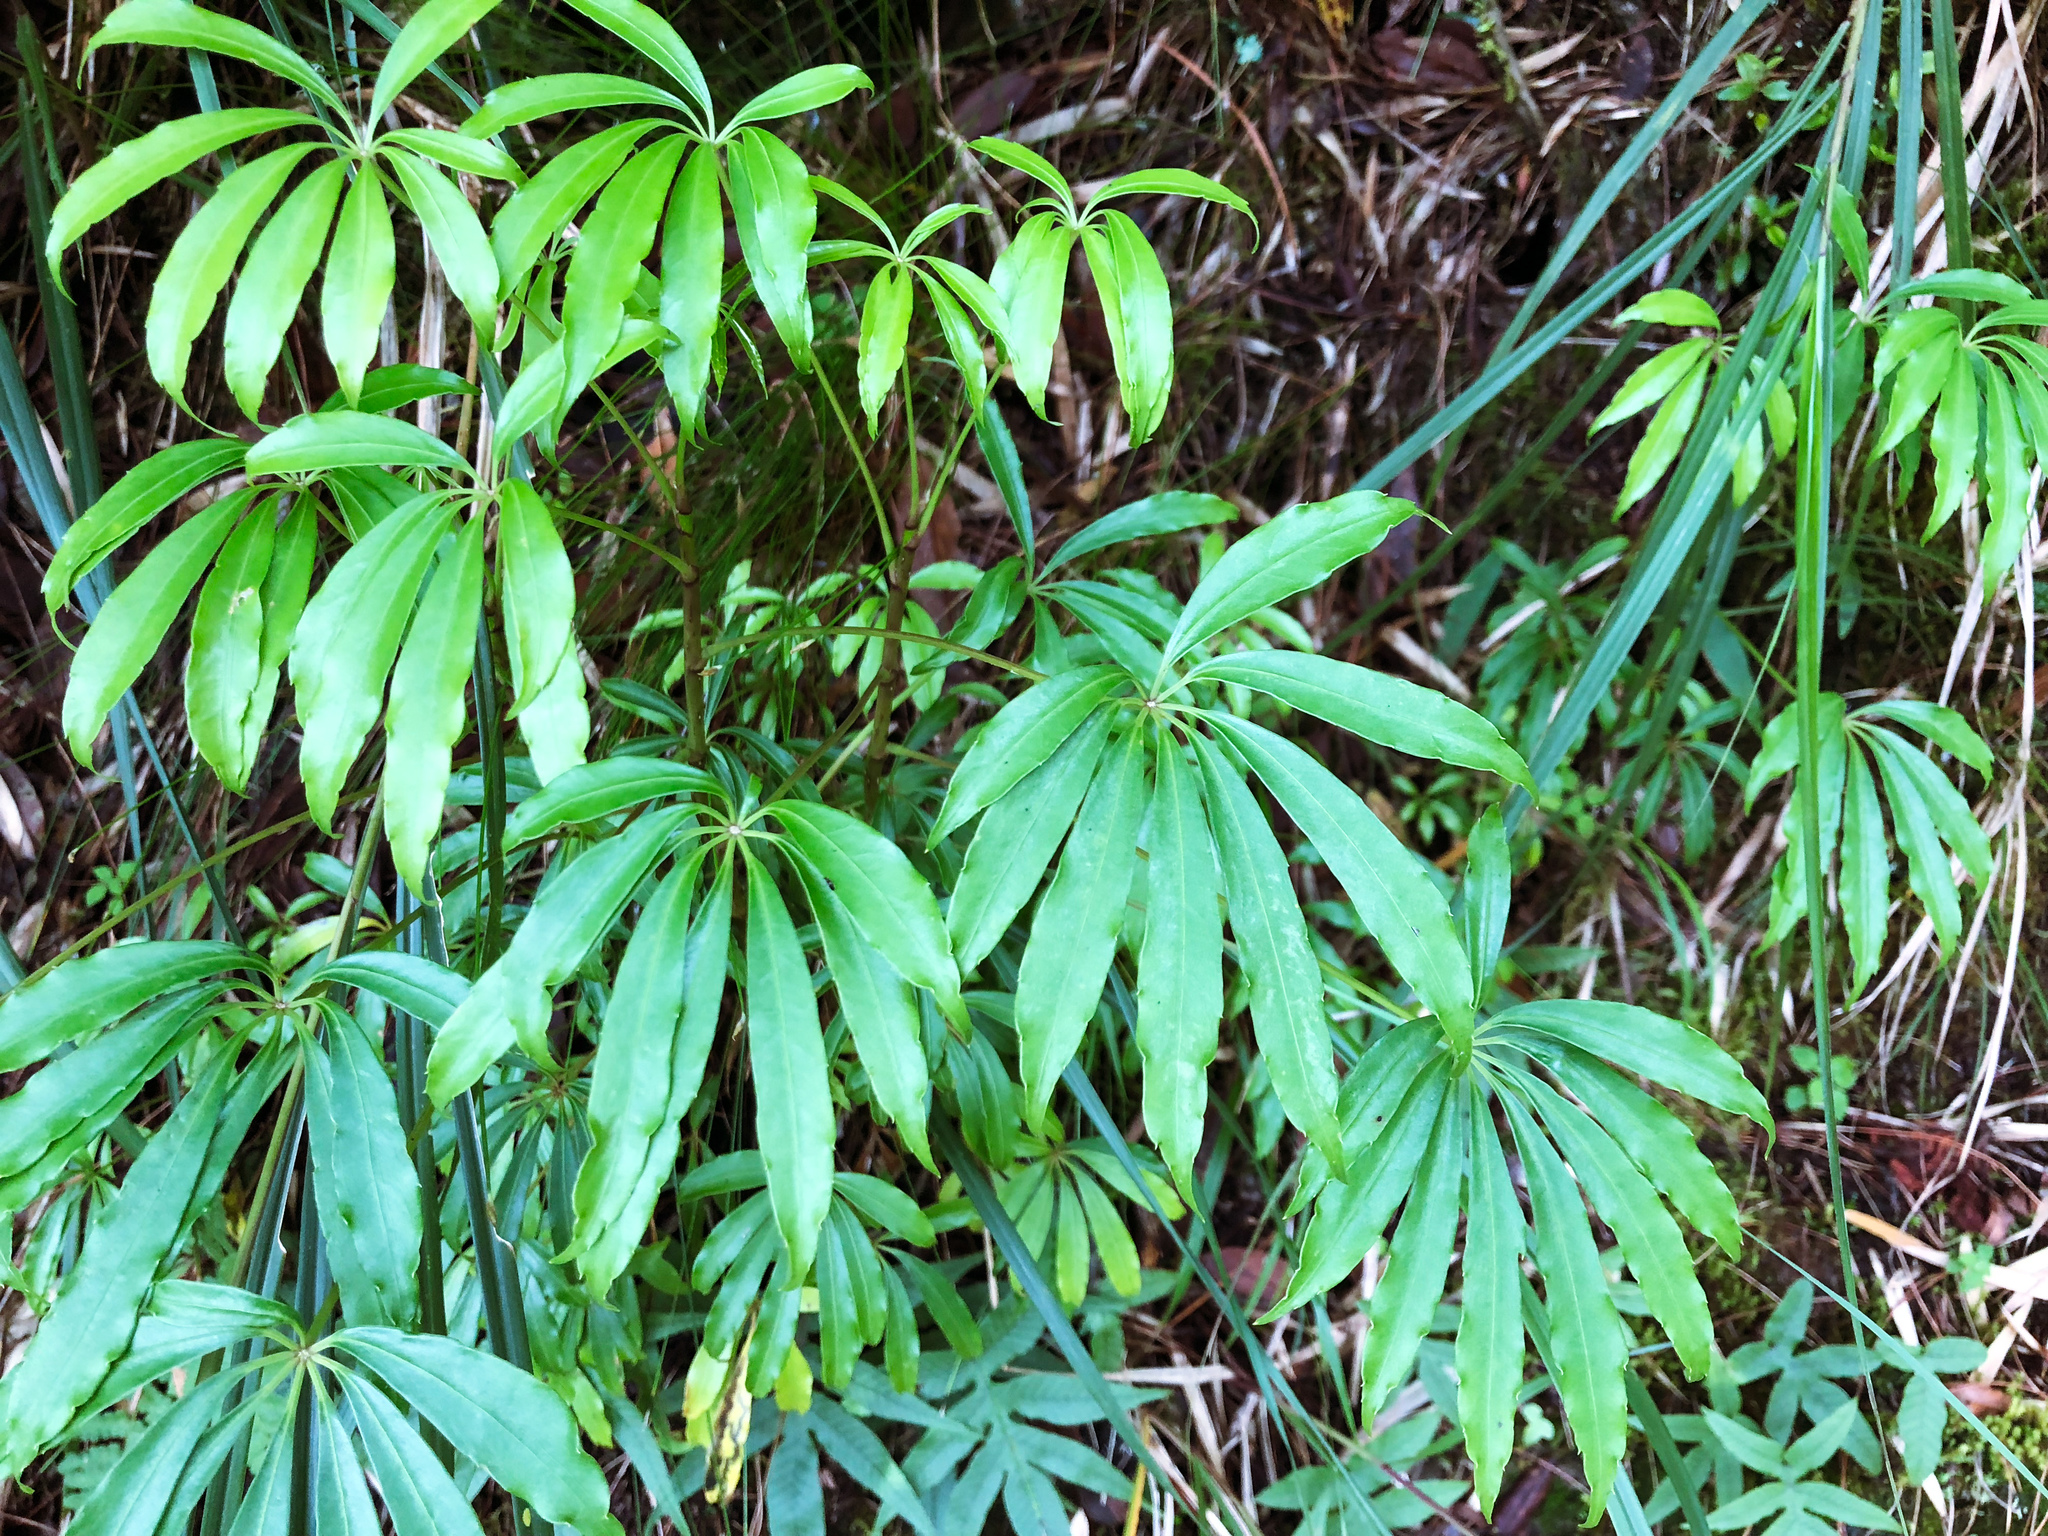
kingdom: Plantae
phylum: Tracheophyta
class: Magnoliopsida
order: Apiales
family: Araliaceae
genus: Heptapleurum
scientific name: Heptapleurum taiwanianum
